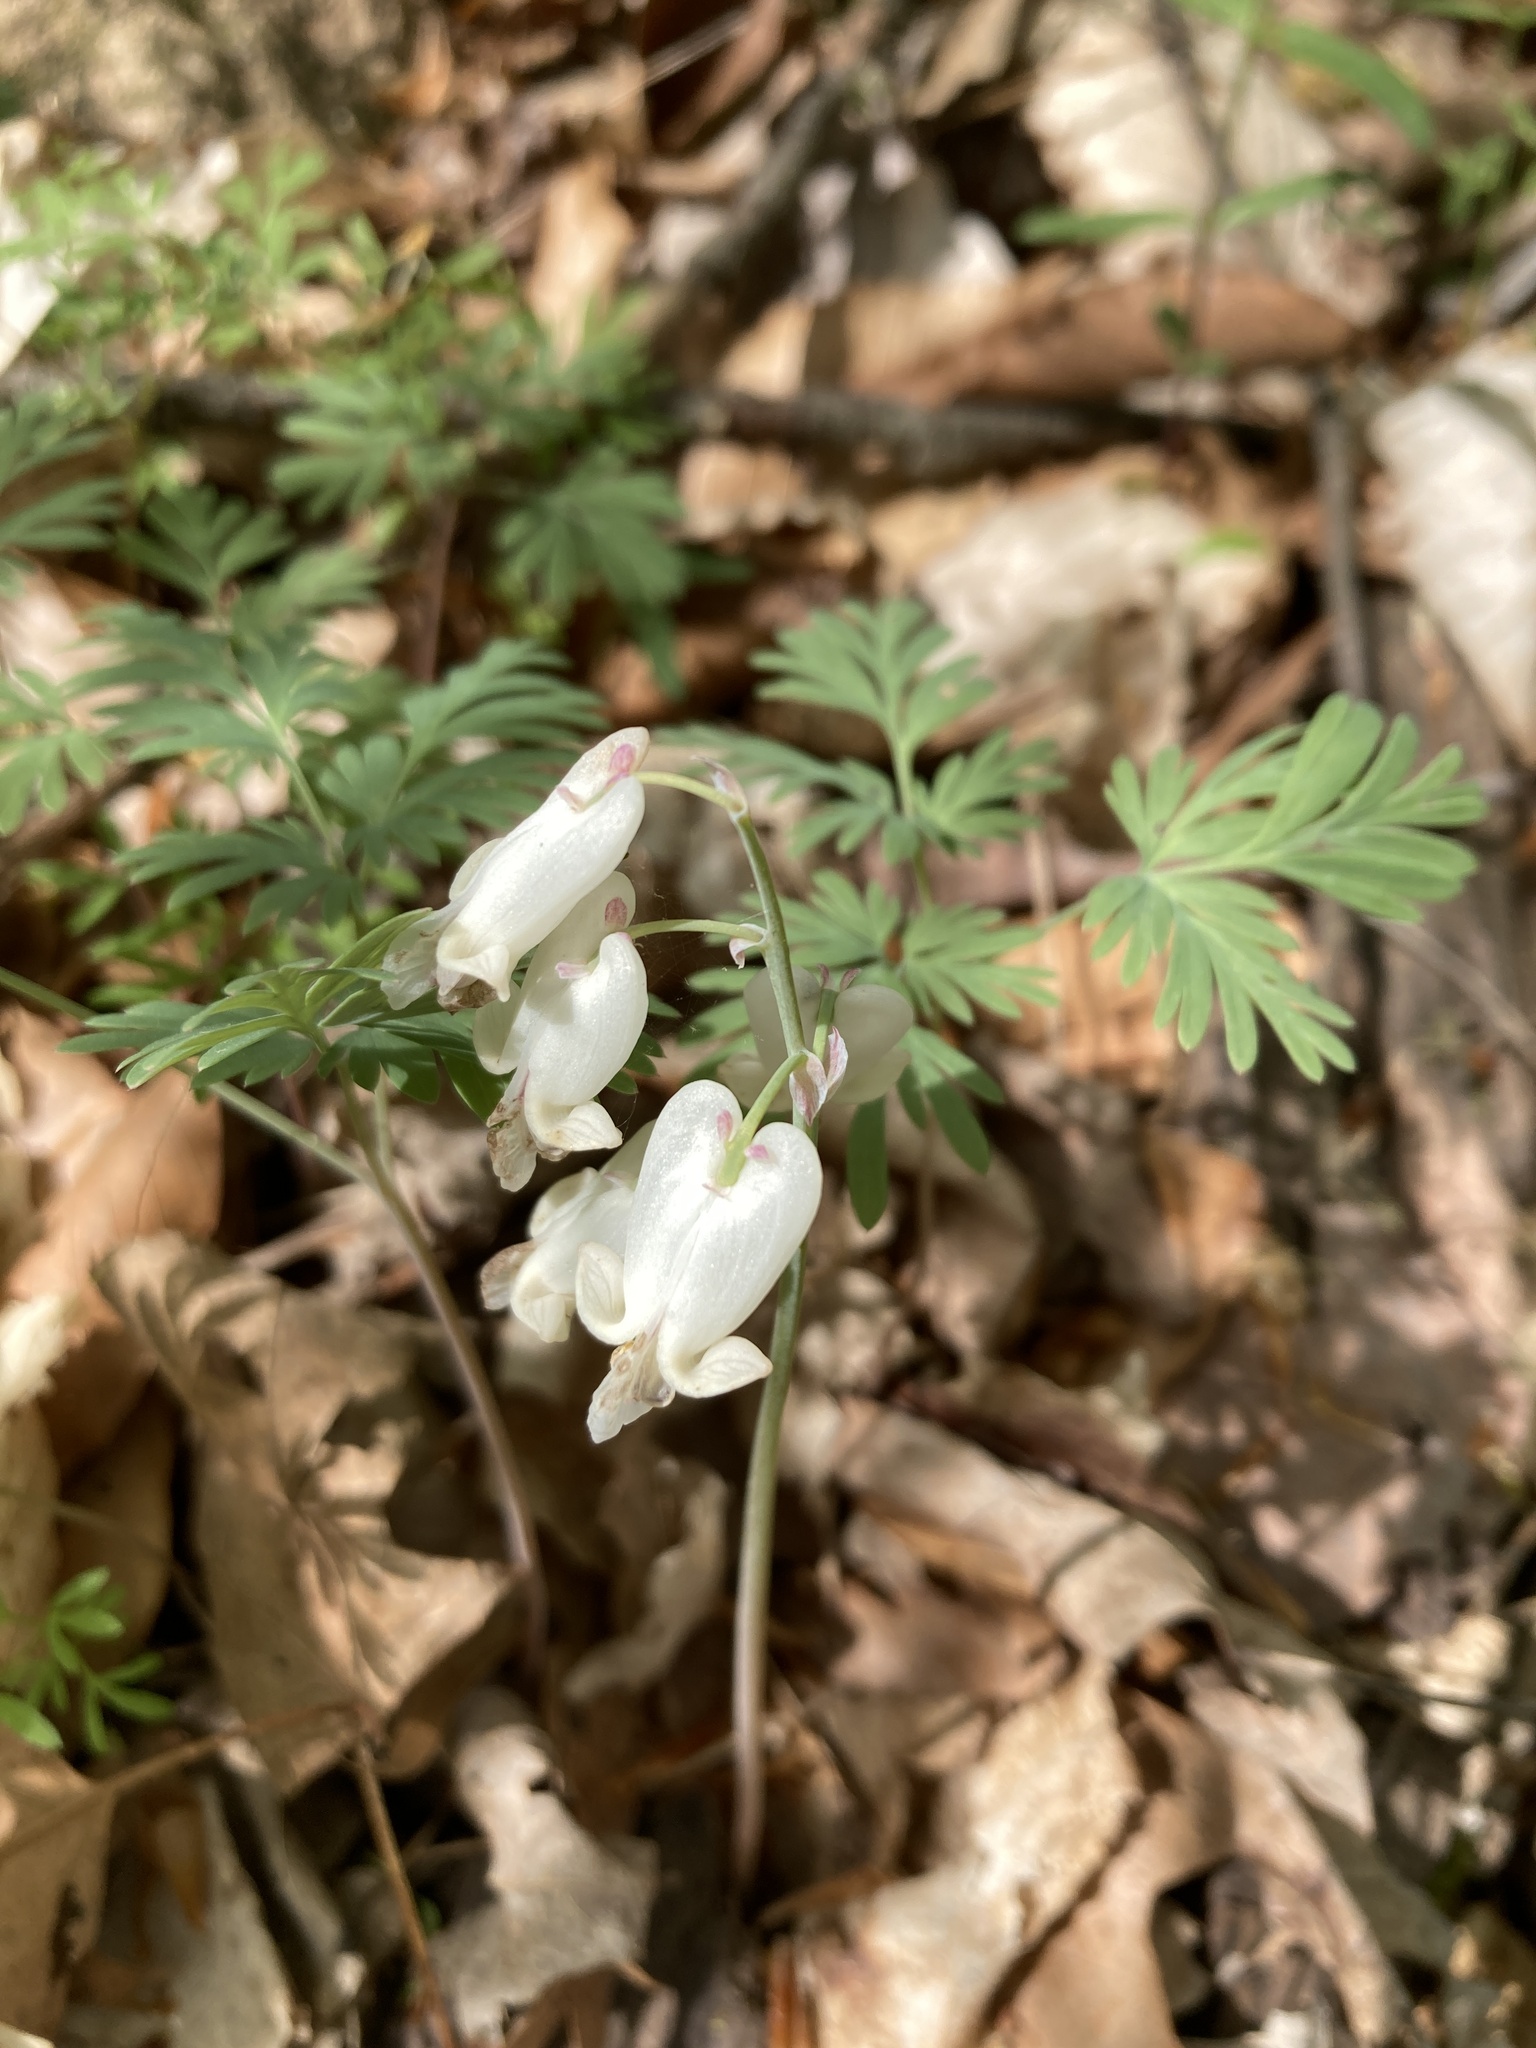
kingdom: Plantae
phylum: Tracheophyta
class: Magnoliopsida
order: Ranunculales
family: Papaveraceae
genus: Dicentra
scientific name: Dicentra canadensis
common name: Squirrel-corn
